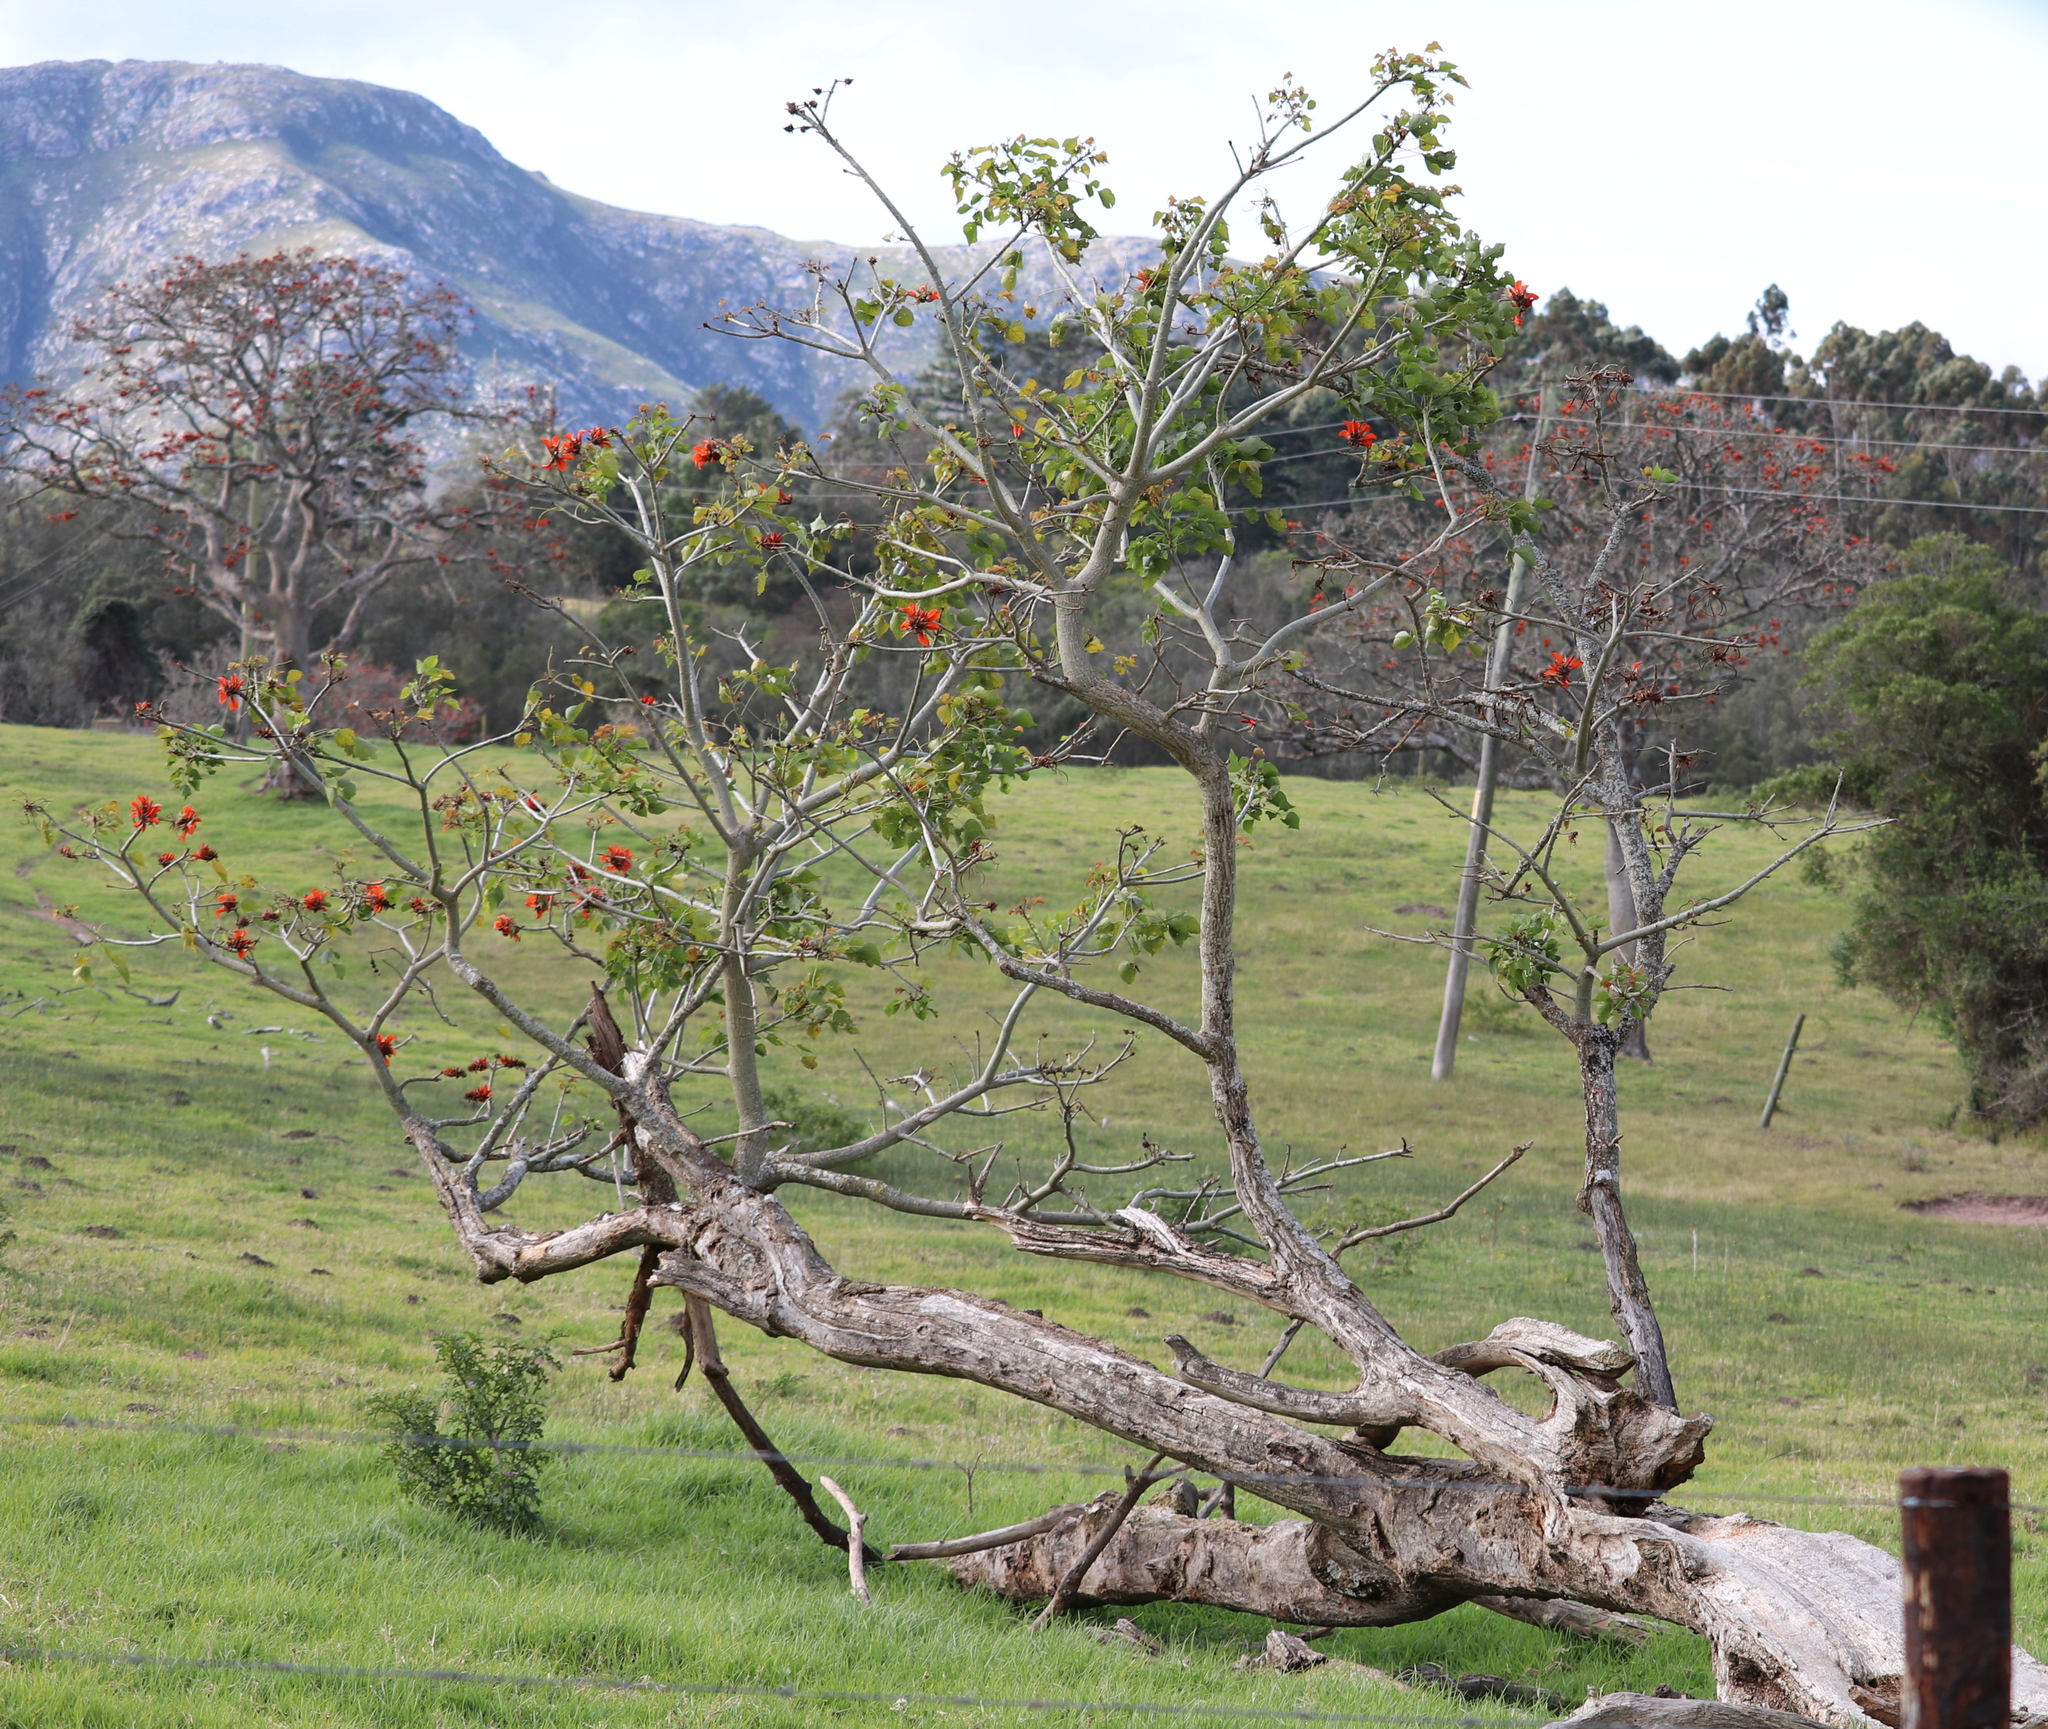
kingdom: Plantae
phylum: Tracheophyta
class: Magnoliopsida
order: Fabales
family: Fabaceae
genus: Erythrina
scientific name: Erythrina caffra
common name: Coast coral tree
